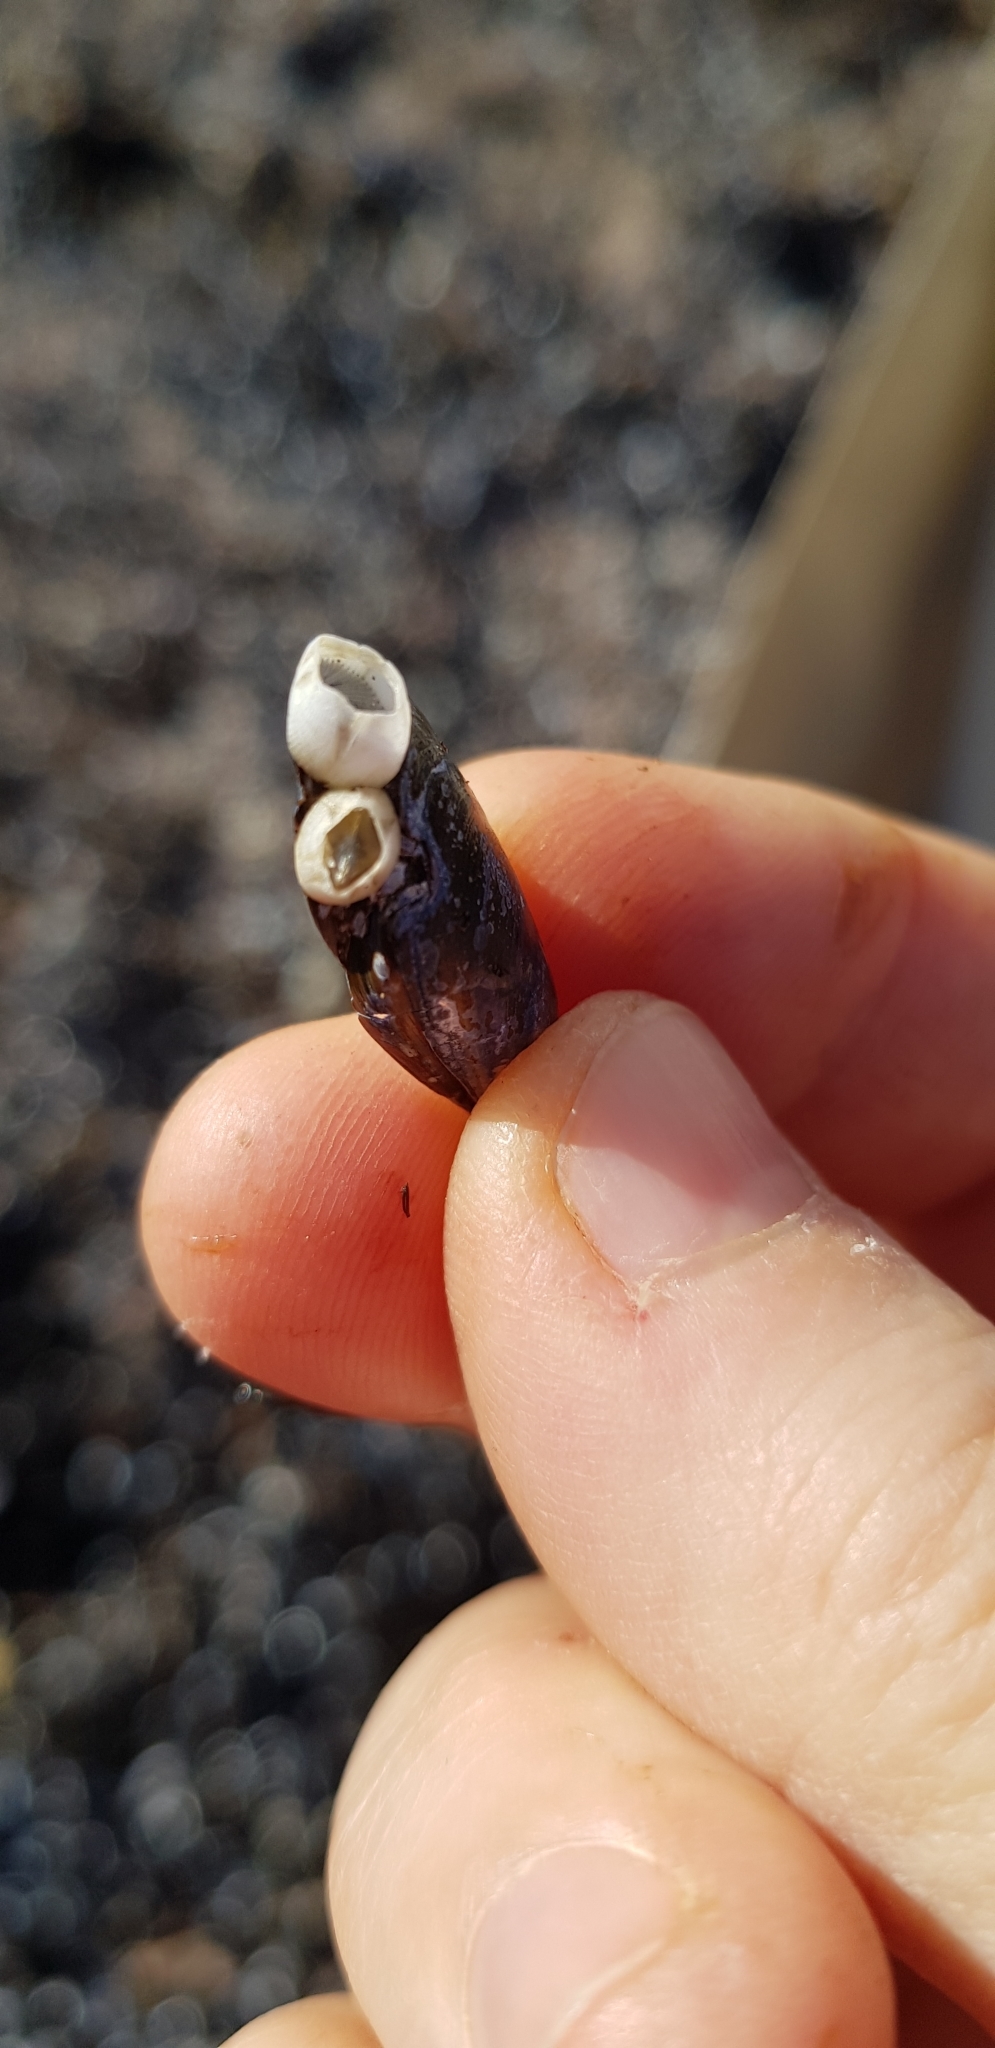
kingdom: Animalia
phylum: Arthropoda
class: Maxillopoda
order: Sessilia
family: Balanidae
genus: Amphibalanus
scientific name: Amphibalanus improvisus
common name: Bay barnacle
